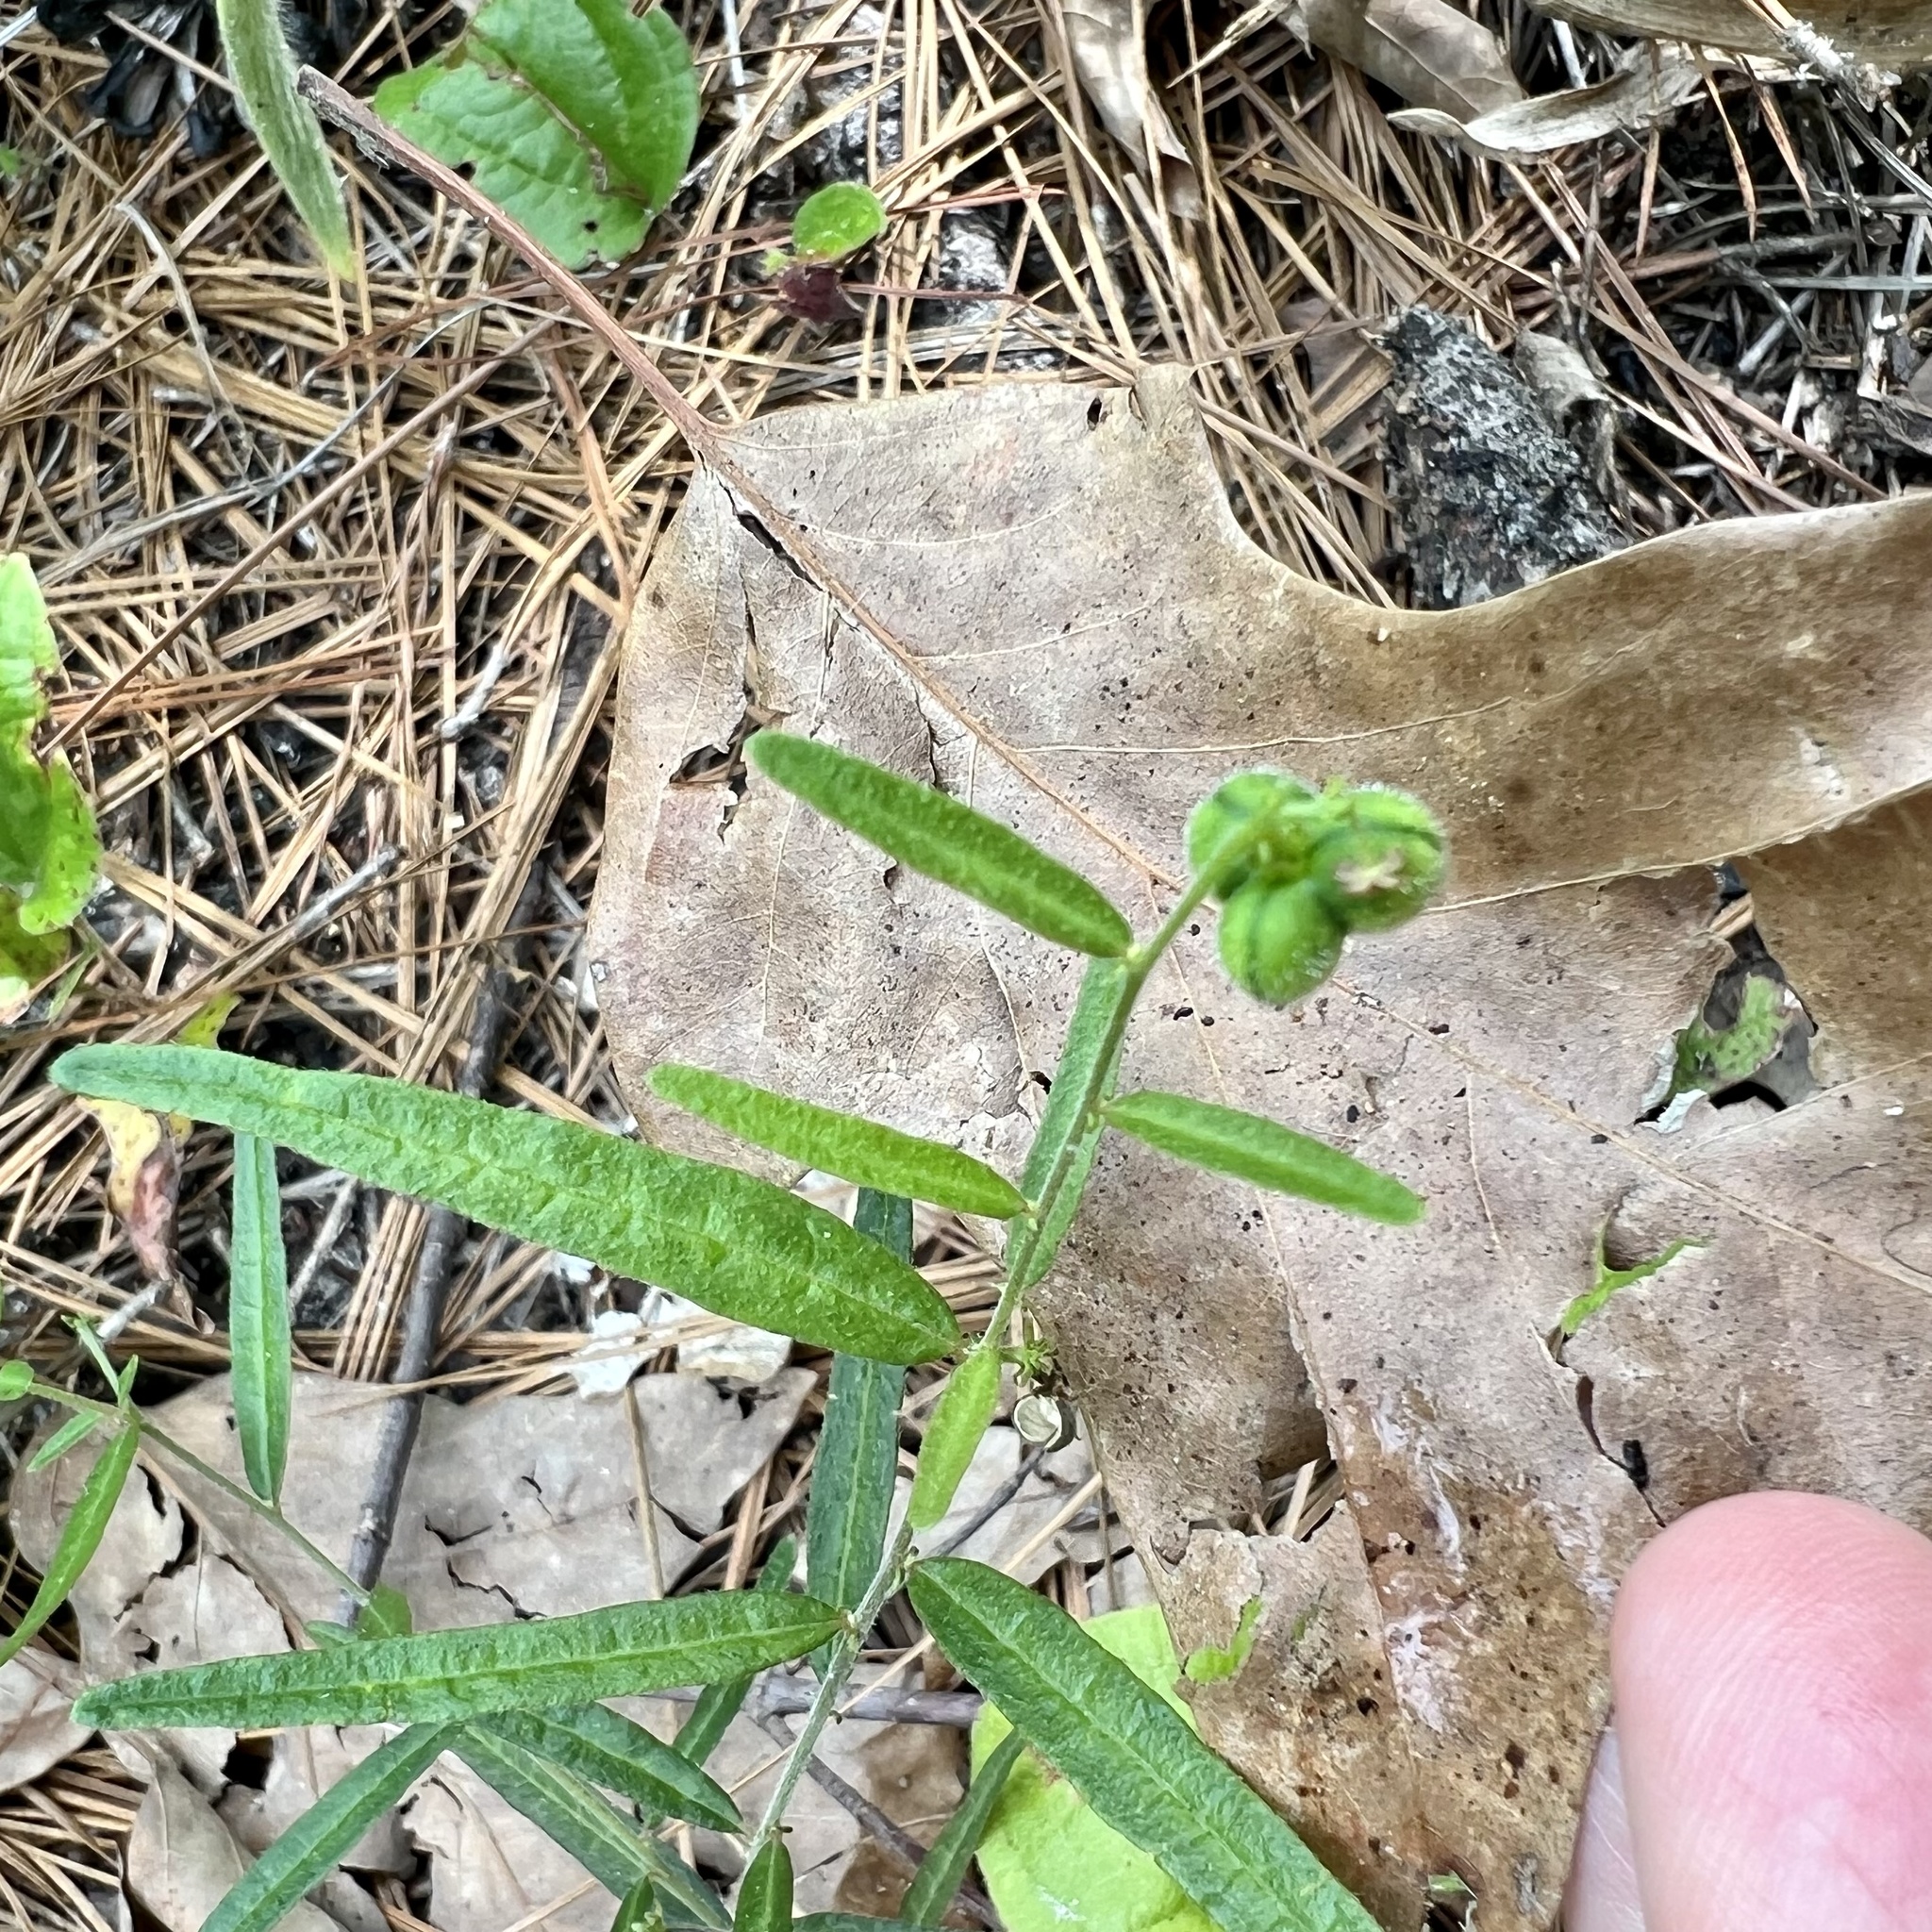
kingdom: Plantae
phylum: Tracheophyta
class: Magnoliopsida
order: Malpighiales
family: Euphorbiaceae
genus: Tragia
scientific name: Tragia urens
